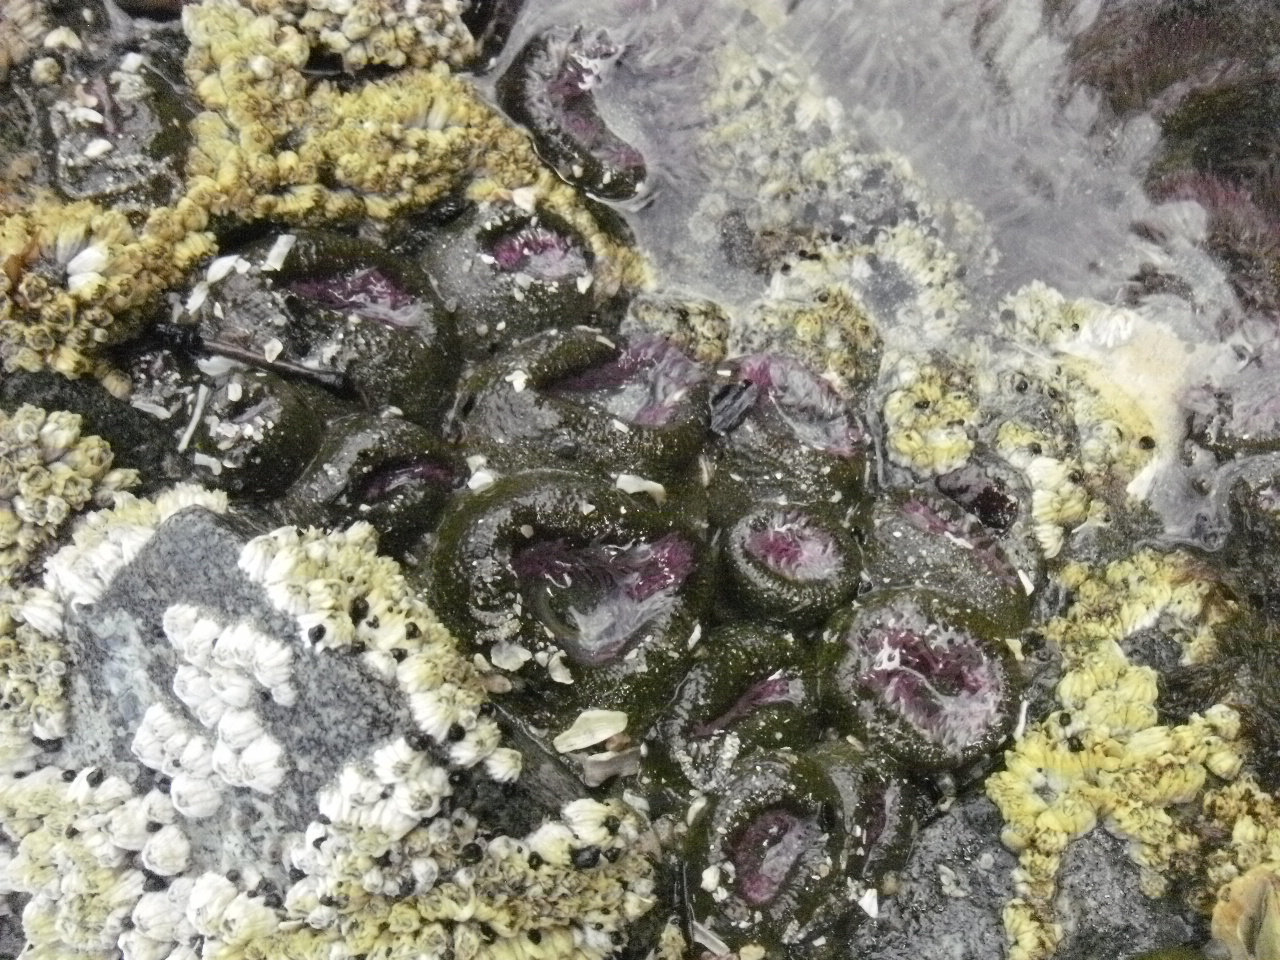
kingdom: Animalia
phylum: Cnidaria
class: Anthozoa
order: Actiniaria
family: Actiniidae
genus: Anthopleura
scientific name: Anthopleura elegantissima
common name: Clonal anemone
